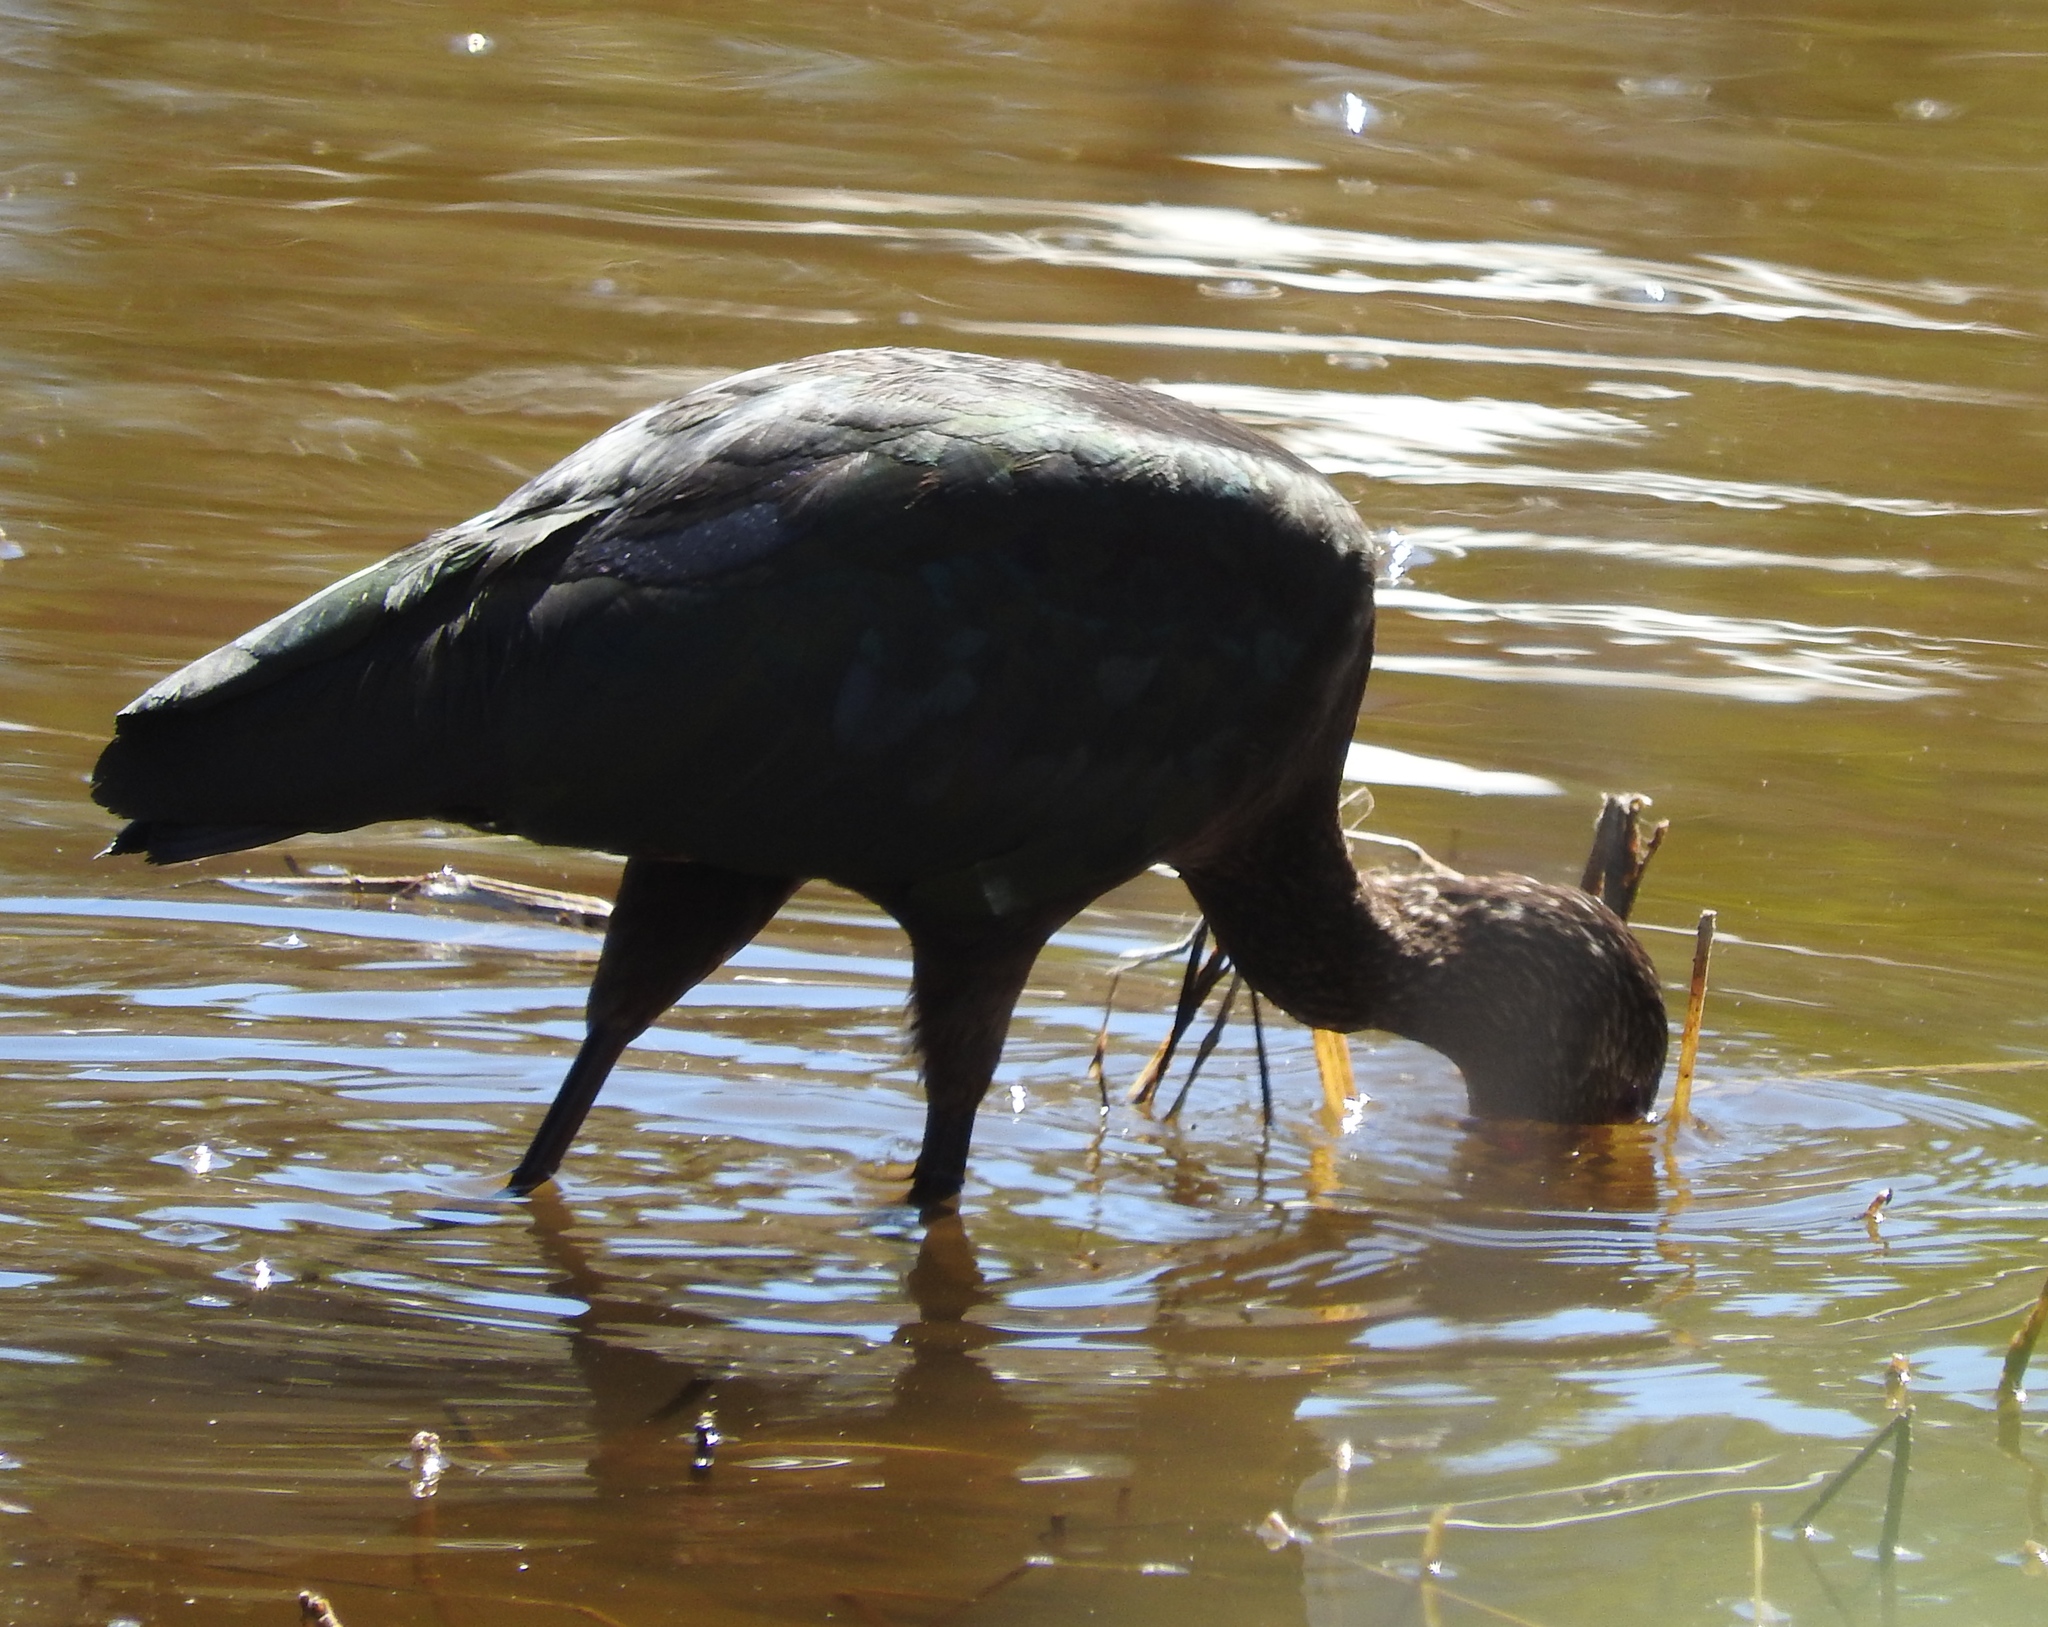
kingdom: Animalia
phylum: Chordata
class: Aves
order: Pelecaniformes
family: Threskiornithidae
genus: Plegadis
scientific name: Plegadis chihi
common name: White-faced ibis
